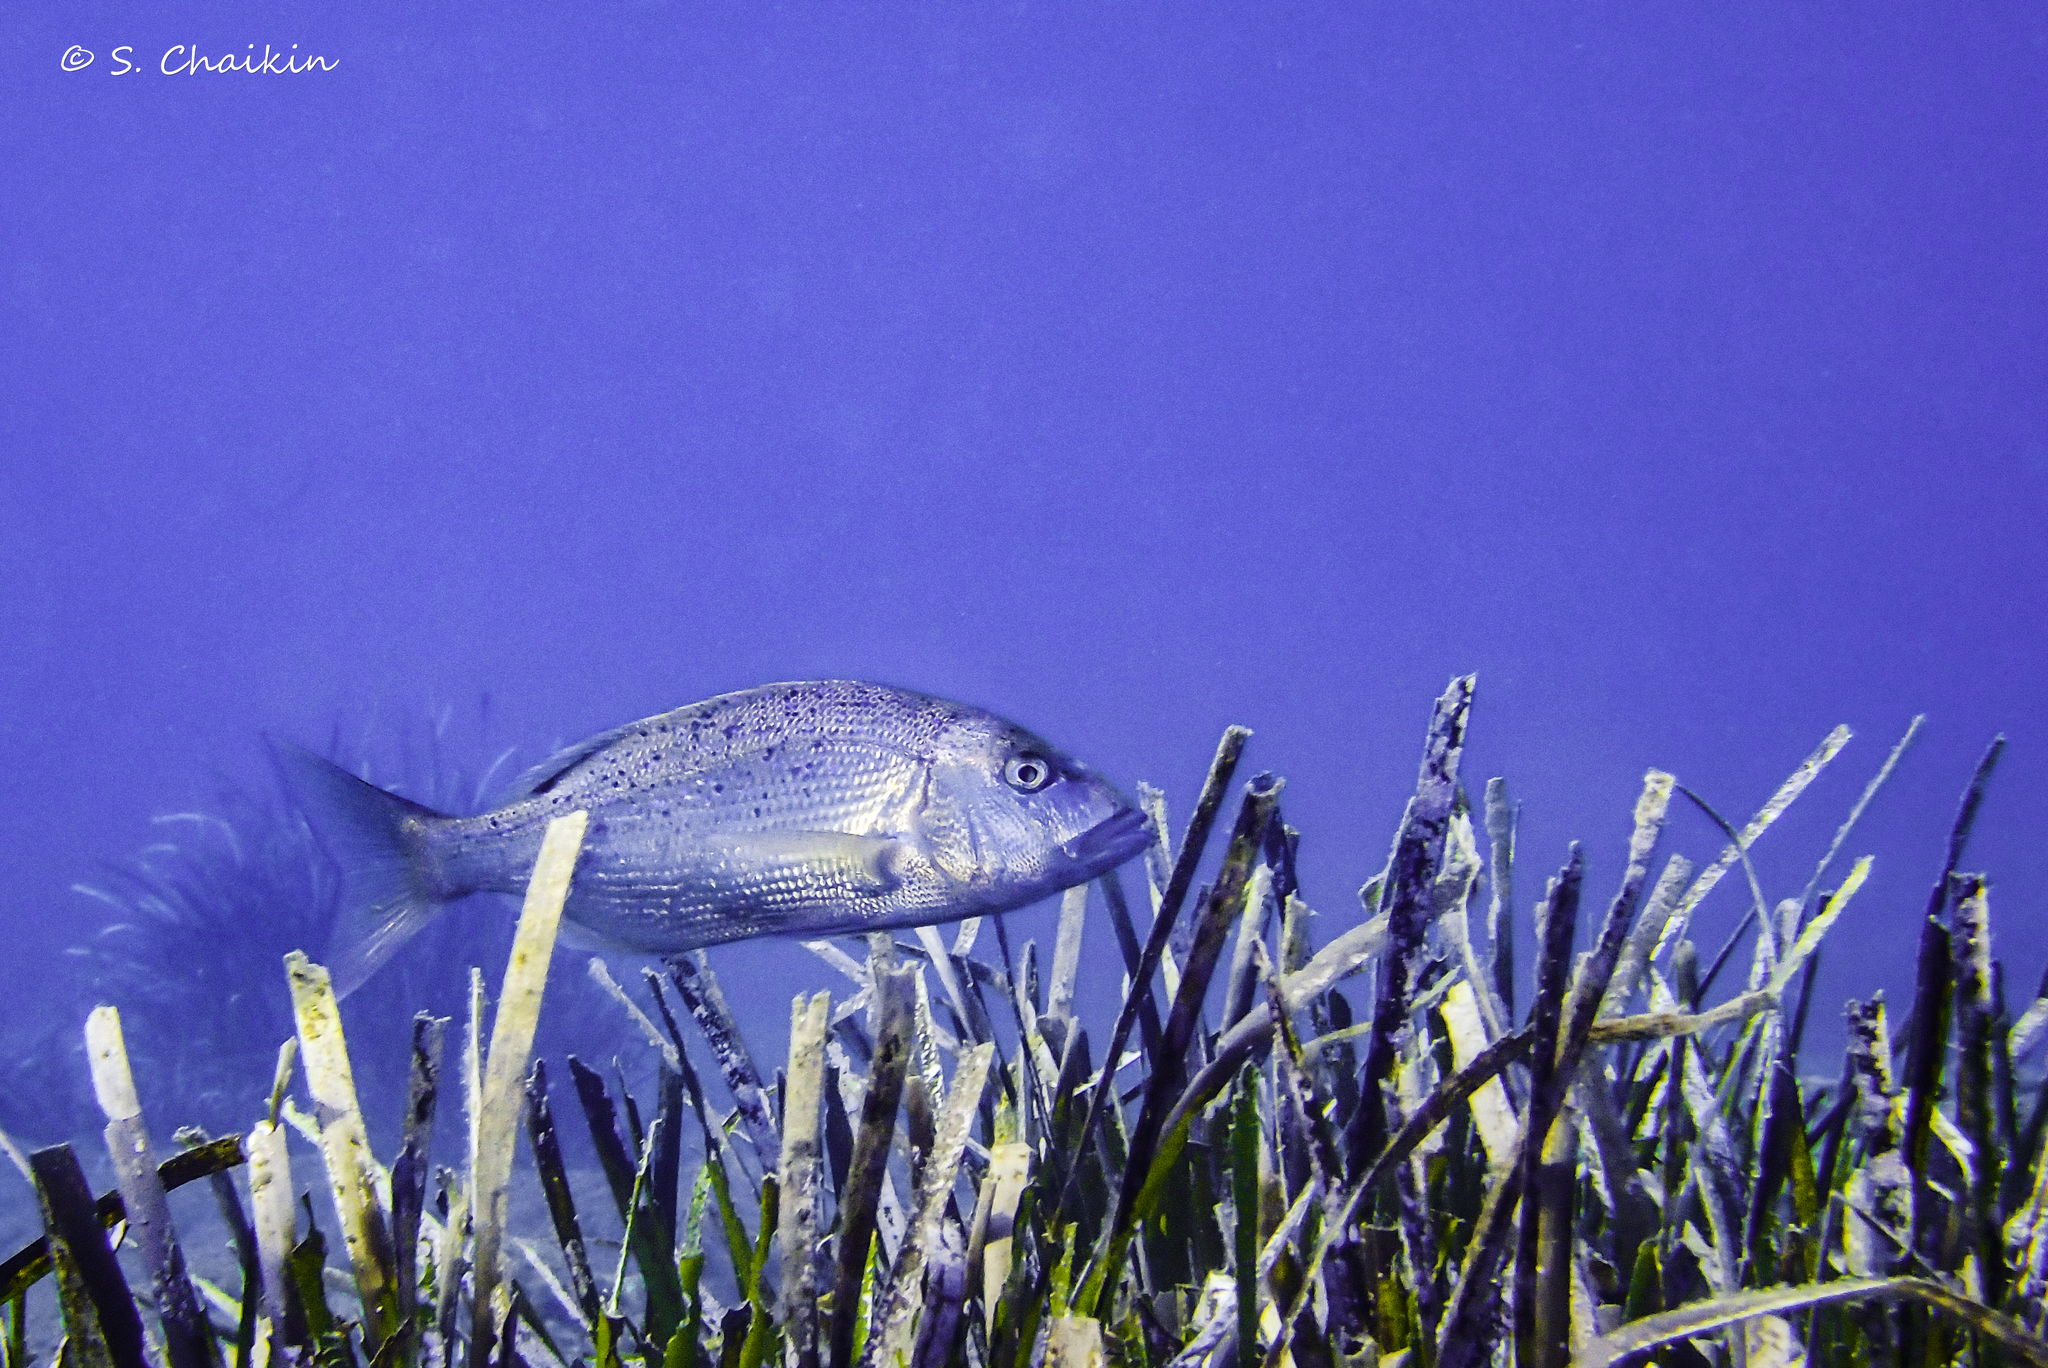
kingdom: Animalia
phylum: Chordata
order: Perciformes
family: Sparidae
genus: Dentex
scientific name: Dentex dentex
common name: Dentex
